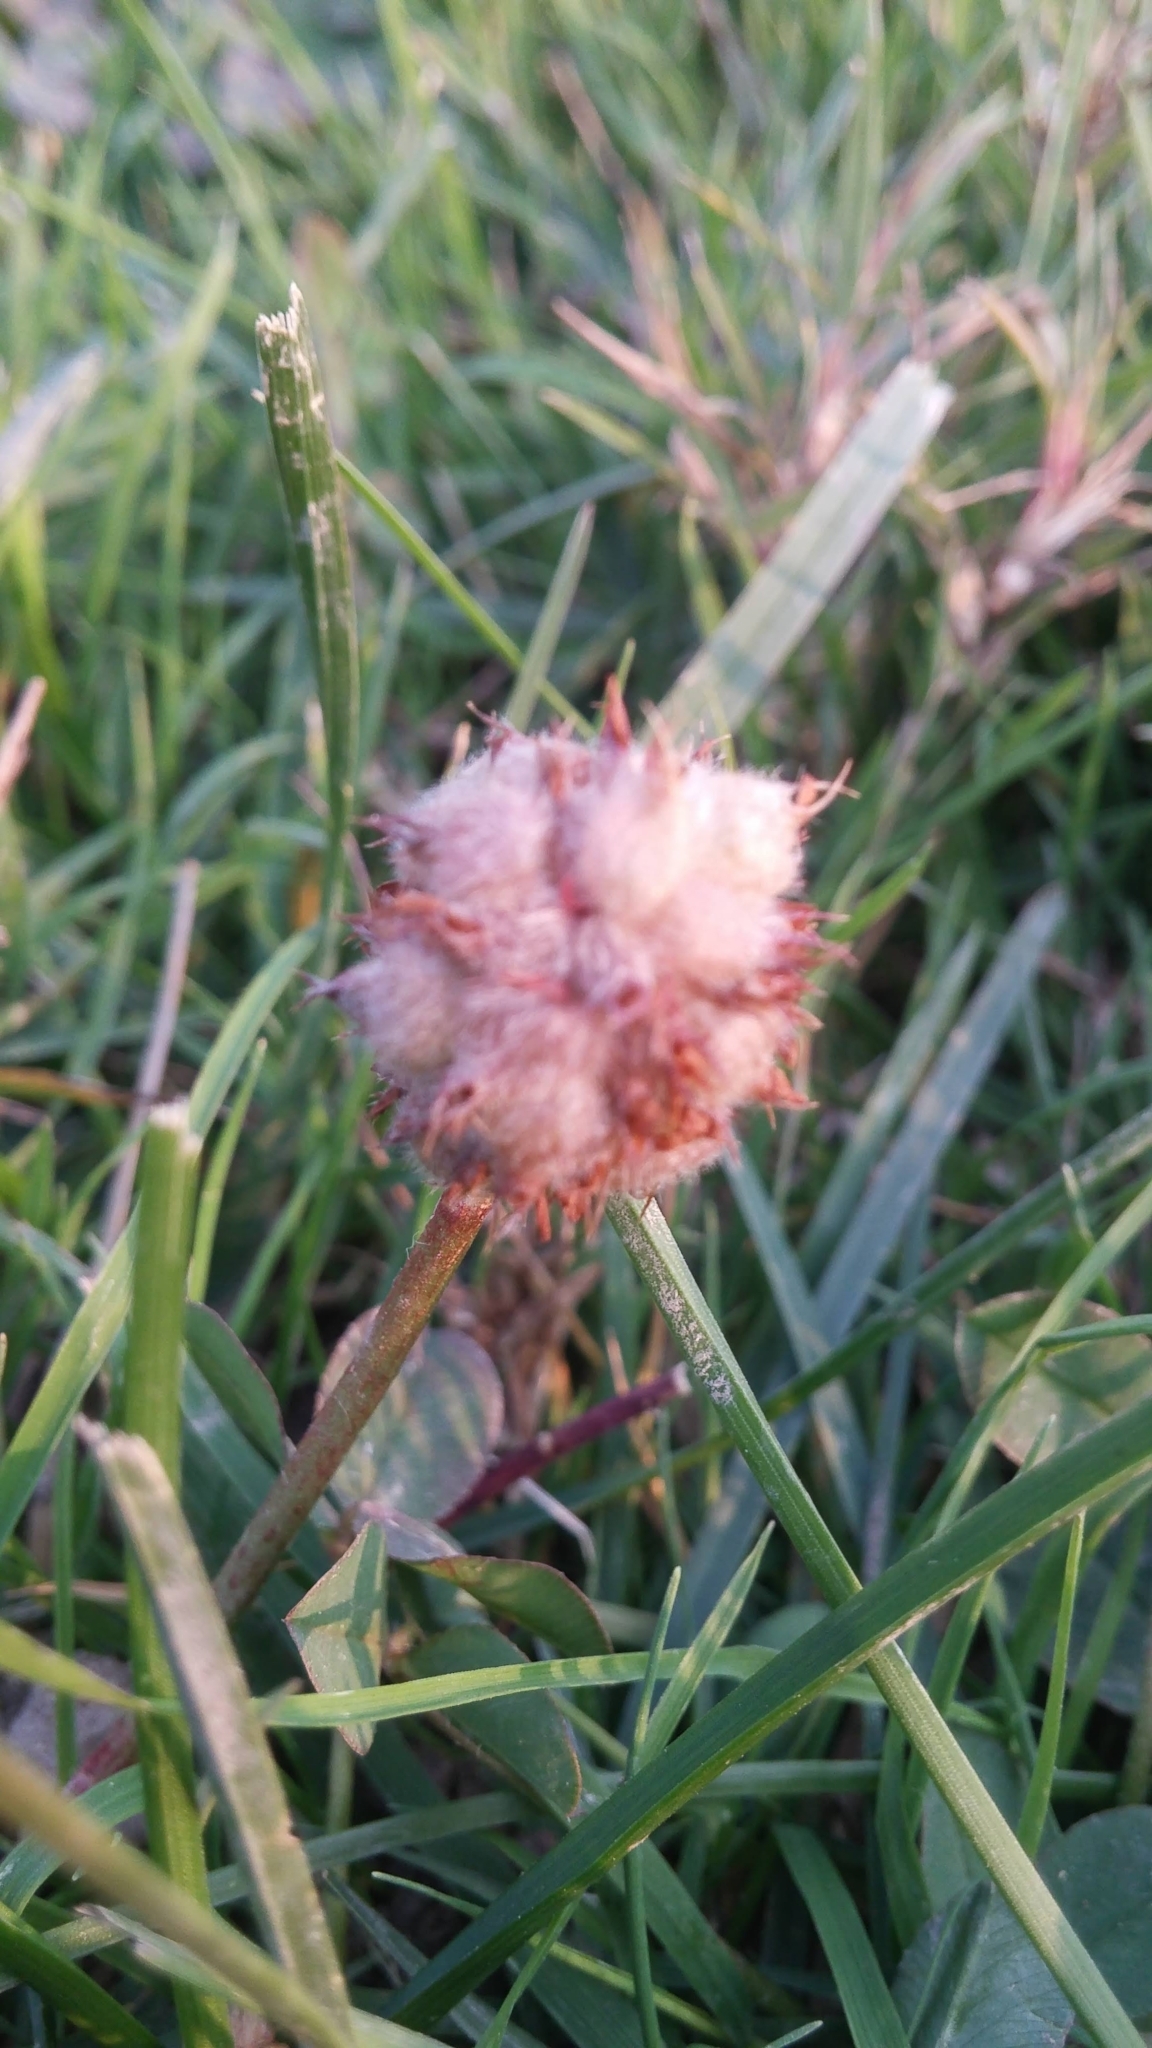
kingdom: Plantae
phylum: Tracheophyta
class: Magnoliopsida
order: Fabales
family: Fabaceae
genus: Trifolium
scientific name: Trifolium fragiferum
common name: Strawberry clover
